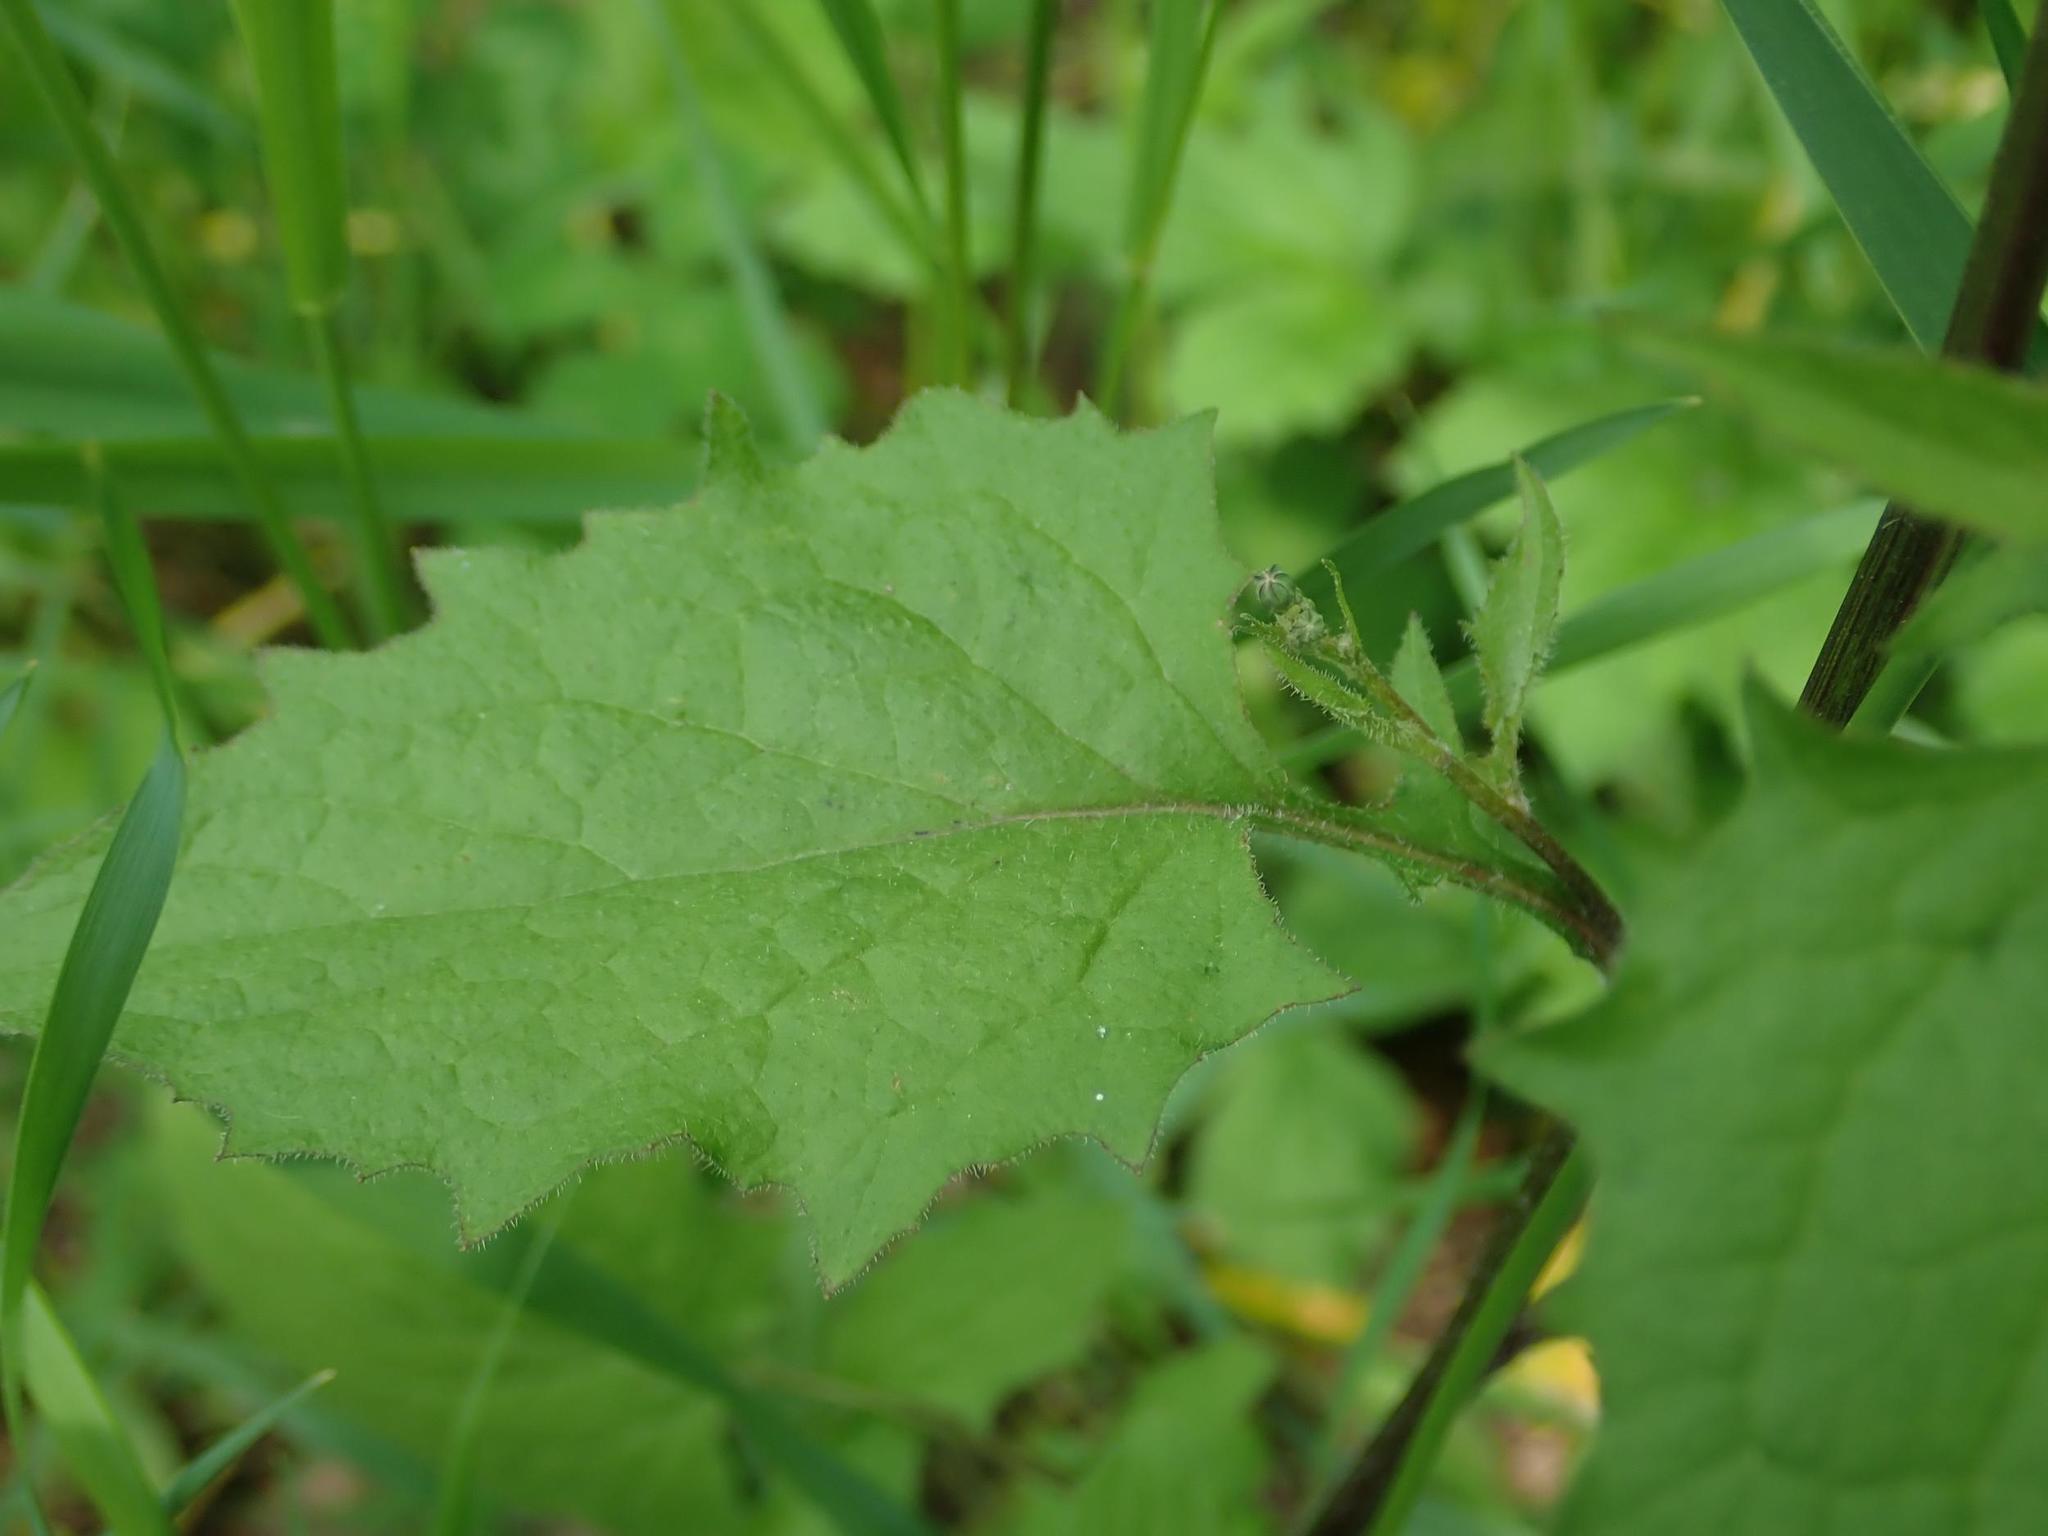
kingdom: Plantae
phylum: Tracheophyta
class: Magnoliopsida
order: Asterales
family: Asteraceae
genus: Lapsana
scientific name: Lapsana communis
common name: Nipplewort
